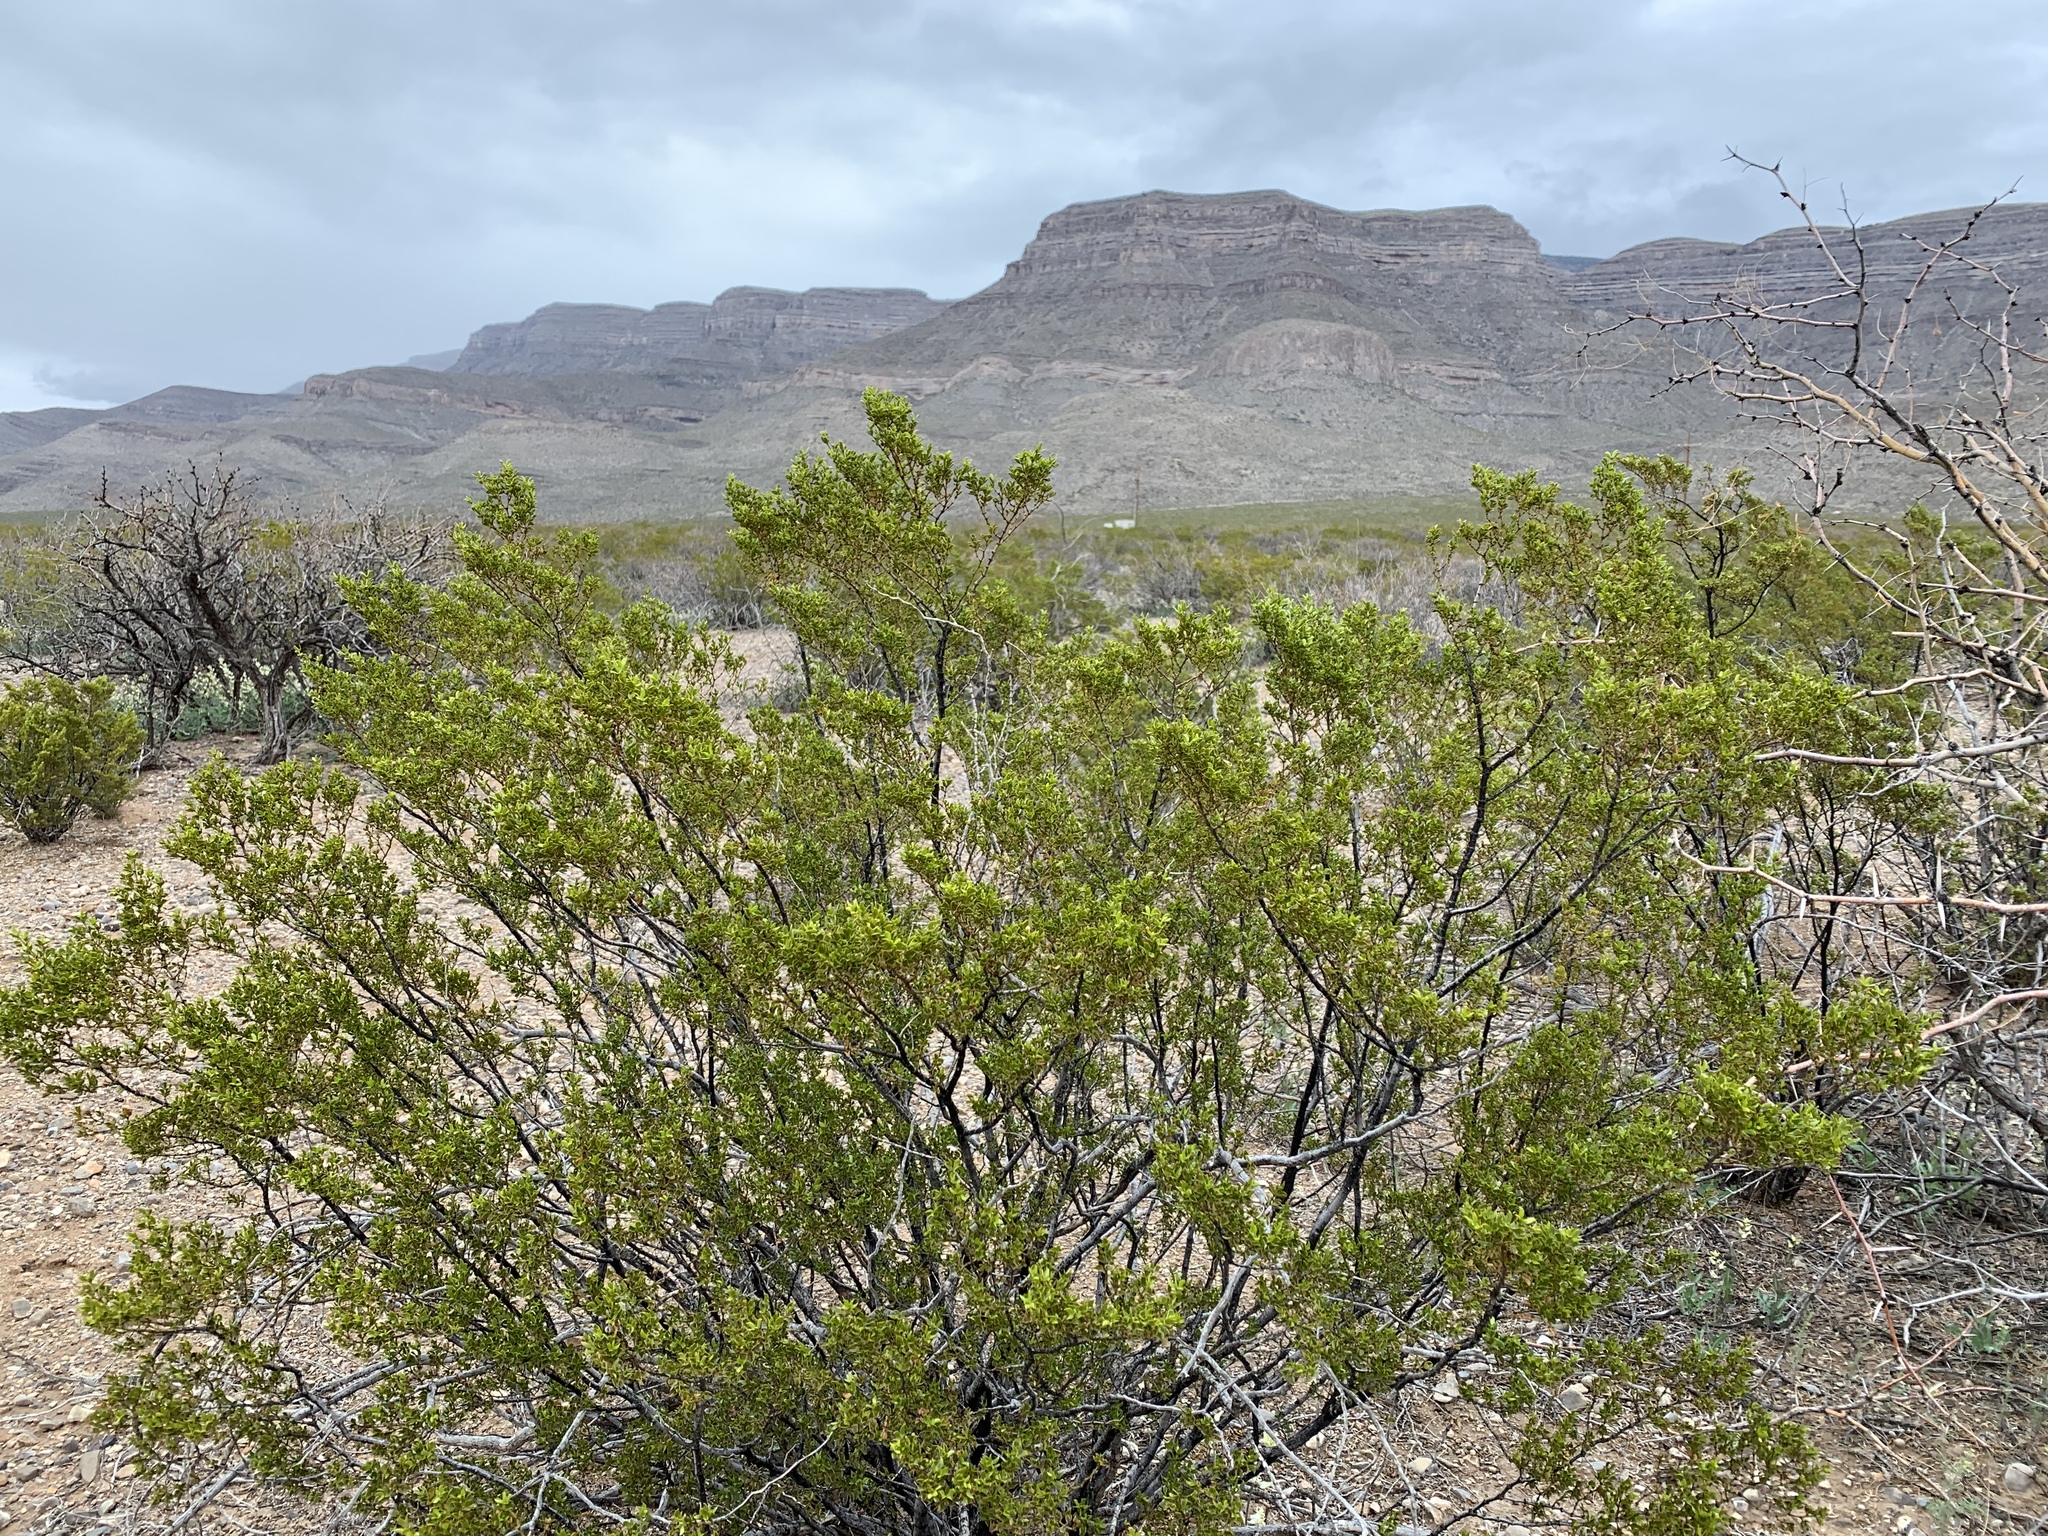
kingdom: Plantae
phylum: Tracheophyta
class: Magnoliopsida
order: Zygophyllales
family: Zygophyllaceae
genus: Larrea
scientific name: Larrea tridentata
